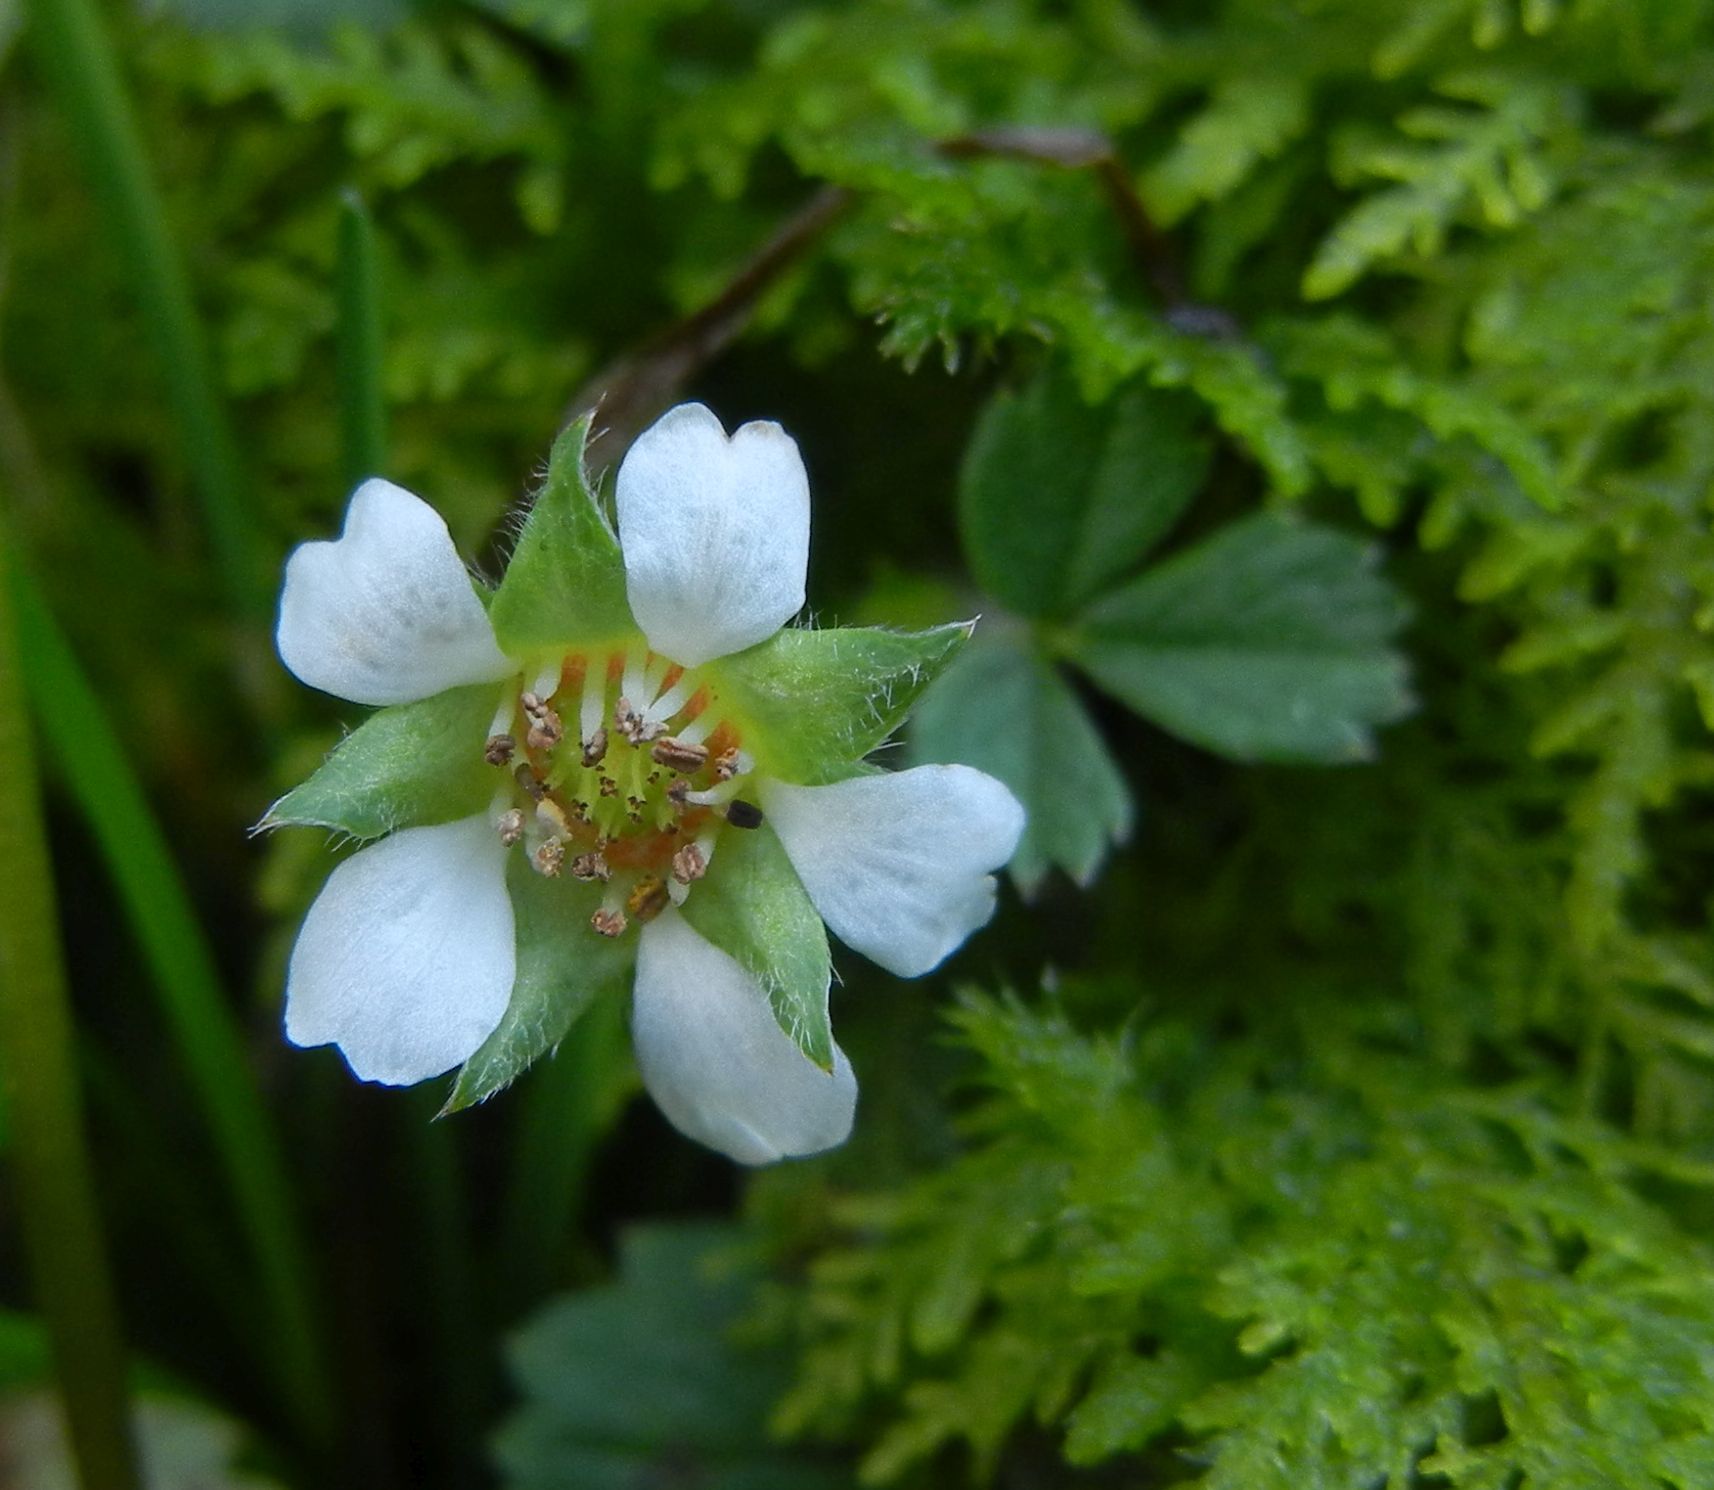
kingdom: Plantae
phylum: Tracheophyta
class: Magnoliopsida
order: Rosales
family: Rosaceae
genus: Potentilla
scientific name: Potentilla sterilis
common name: Barren strawberry
